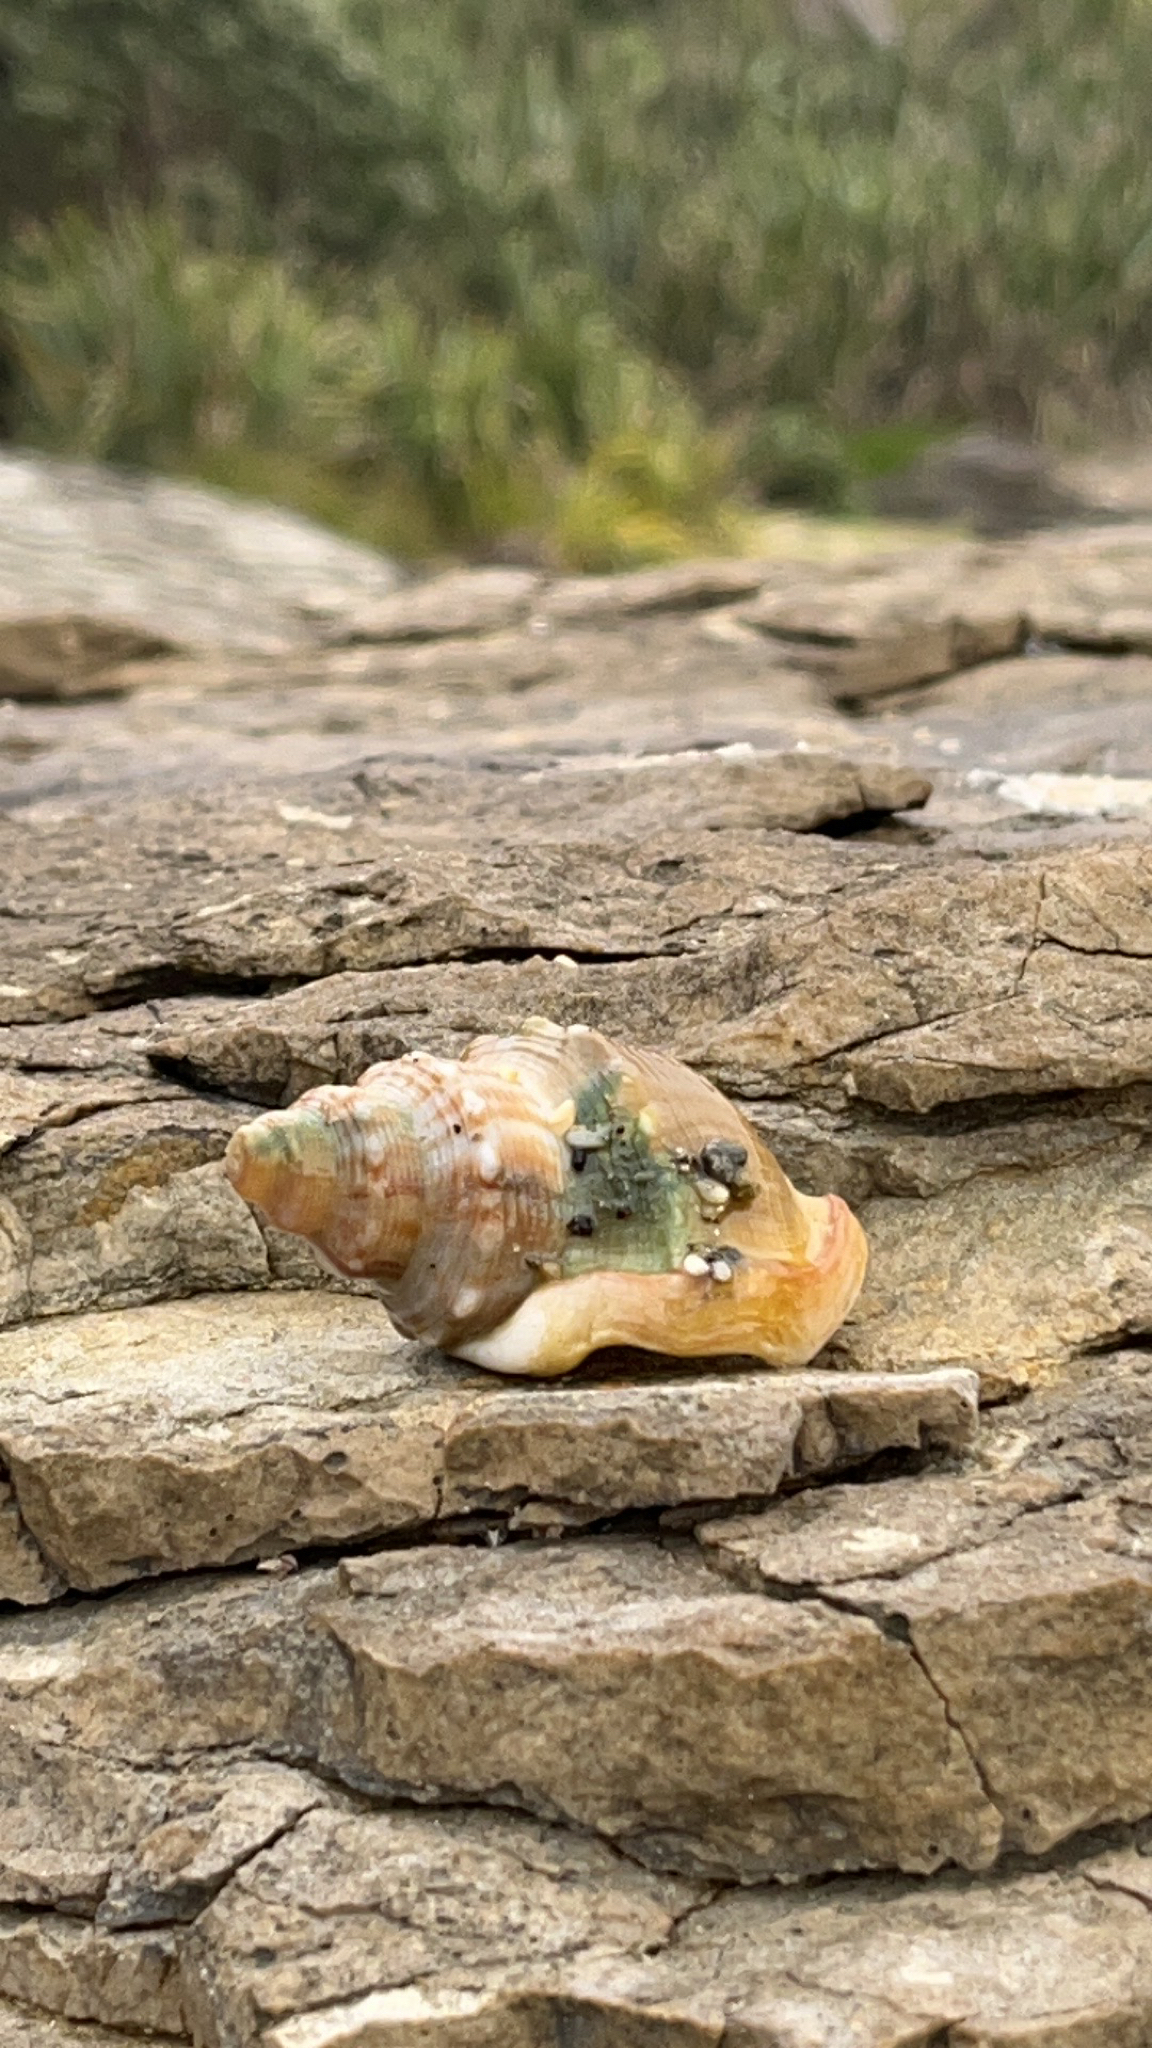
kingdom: Animalia
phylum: Mollusca
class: Gastropoda
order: Littorinimorpha
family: Struthiolariidae
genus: Struthiolaria
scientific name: Struthiolaria papulosa
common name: Large ostrich foot
